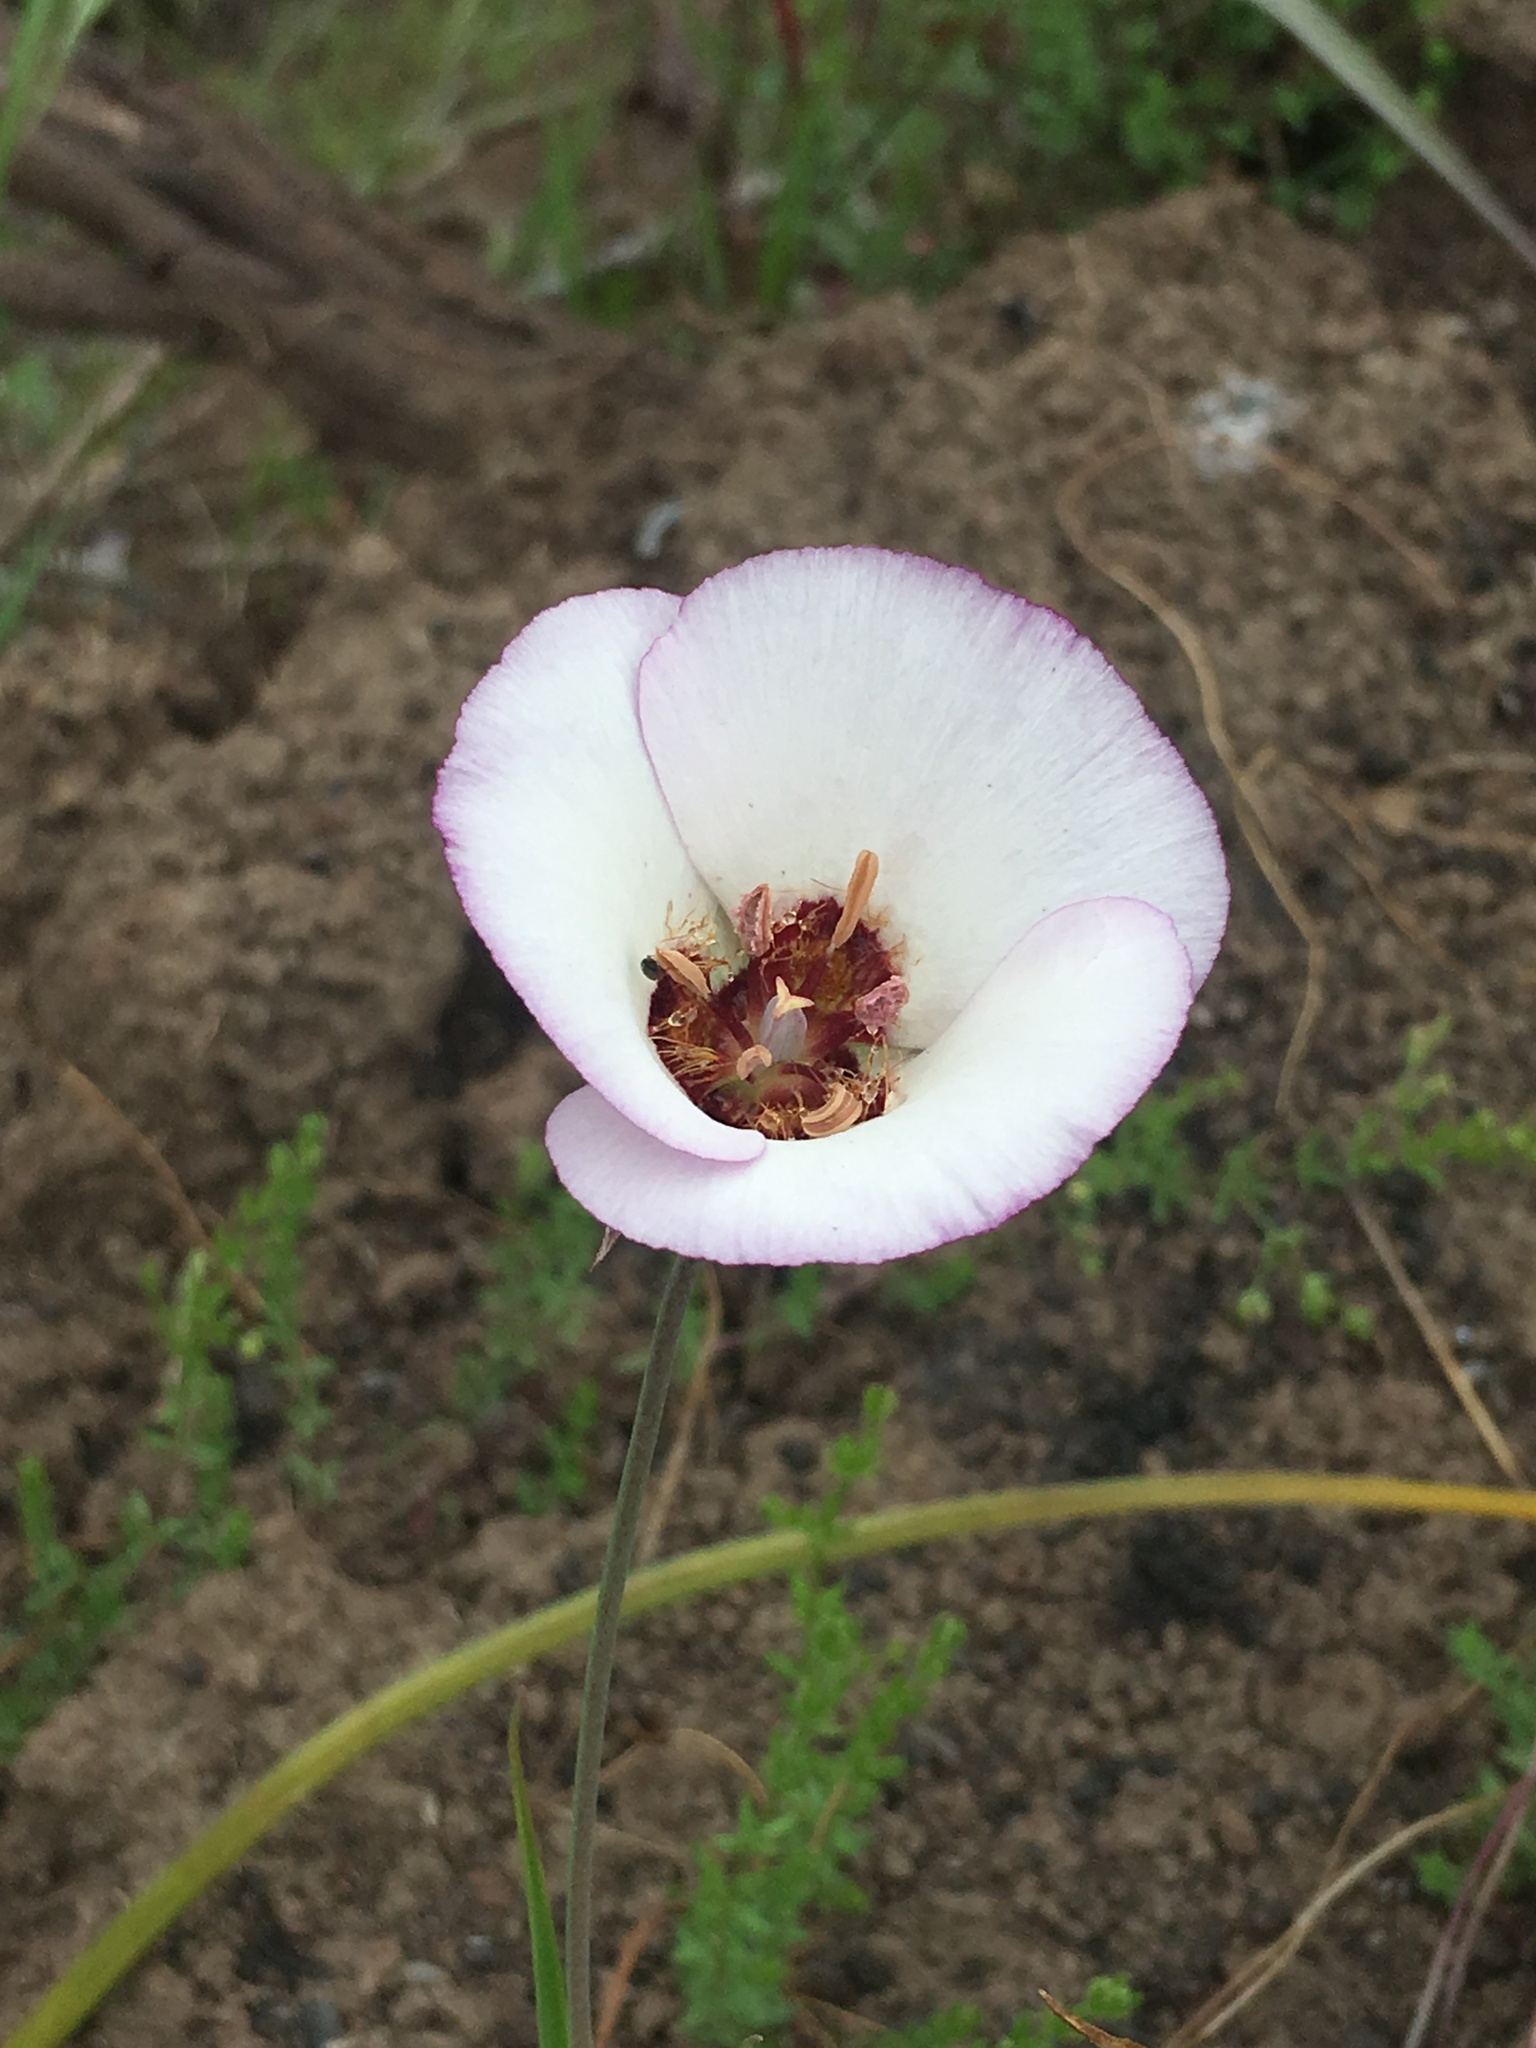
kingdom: Plantae
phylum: Tracheophyta
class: Liliopsida
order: Liliales
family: Liliaceae
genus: Calochortus
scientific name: Calochortus catalinae
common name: Catalina mariposa-lily
